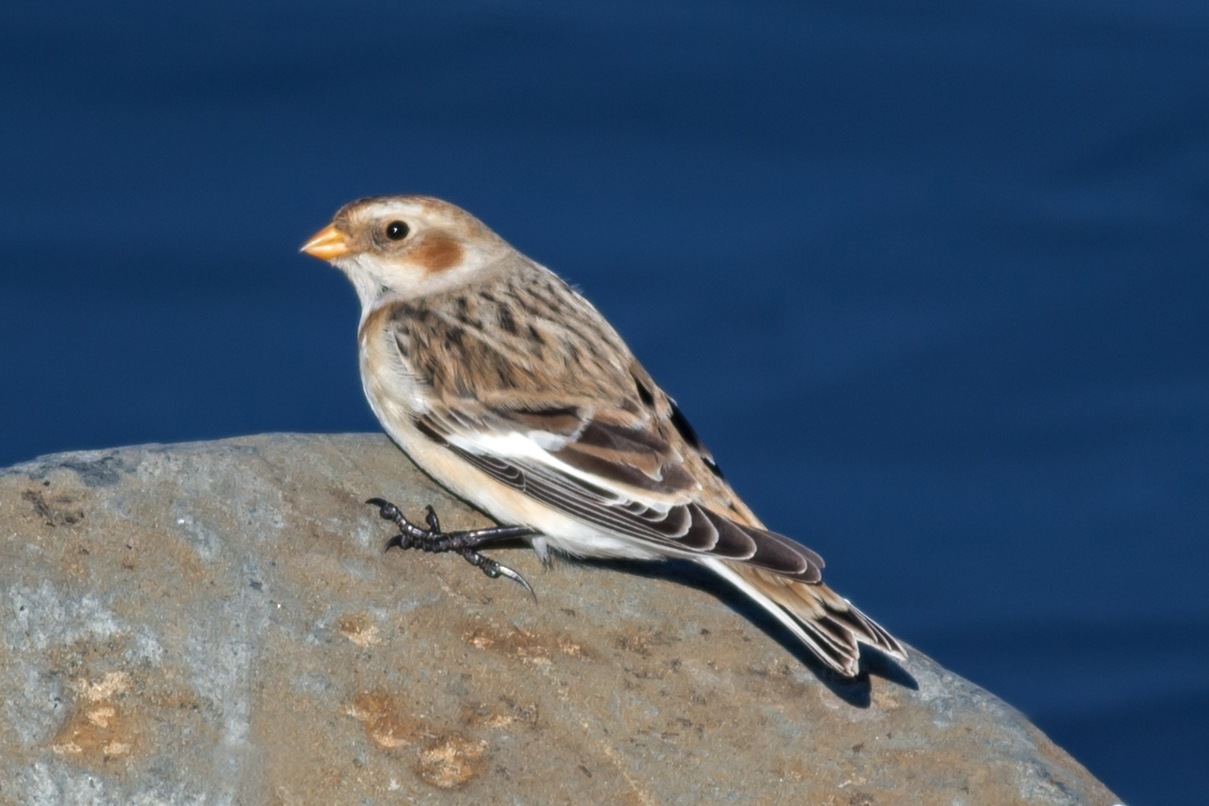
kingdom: Animalia
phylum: Chordata
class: Aves
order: Passeriformes
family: Calcariidae
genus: Plectrophenax
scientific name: Plectrophenax nivalis
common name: Snow bunting
